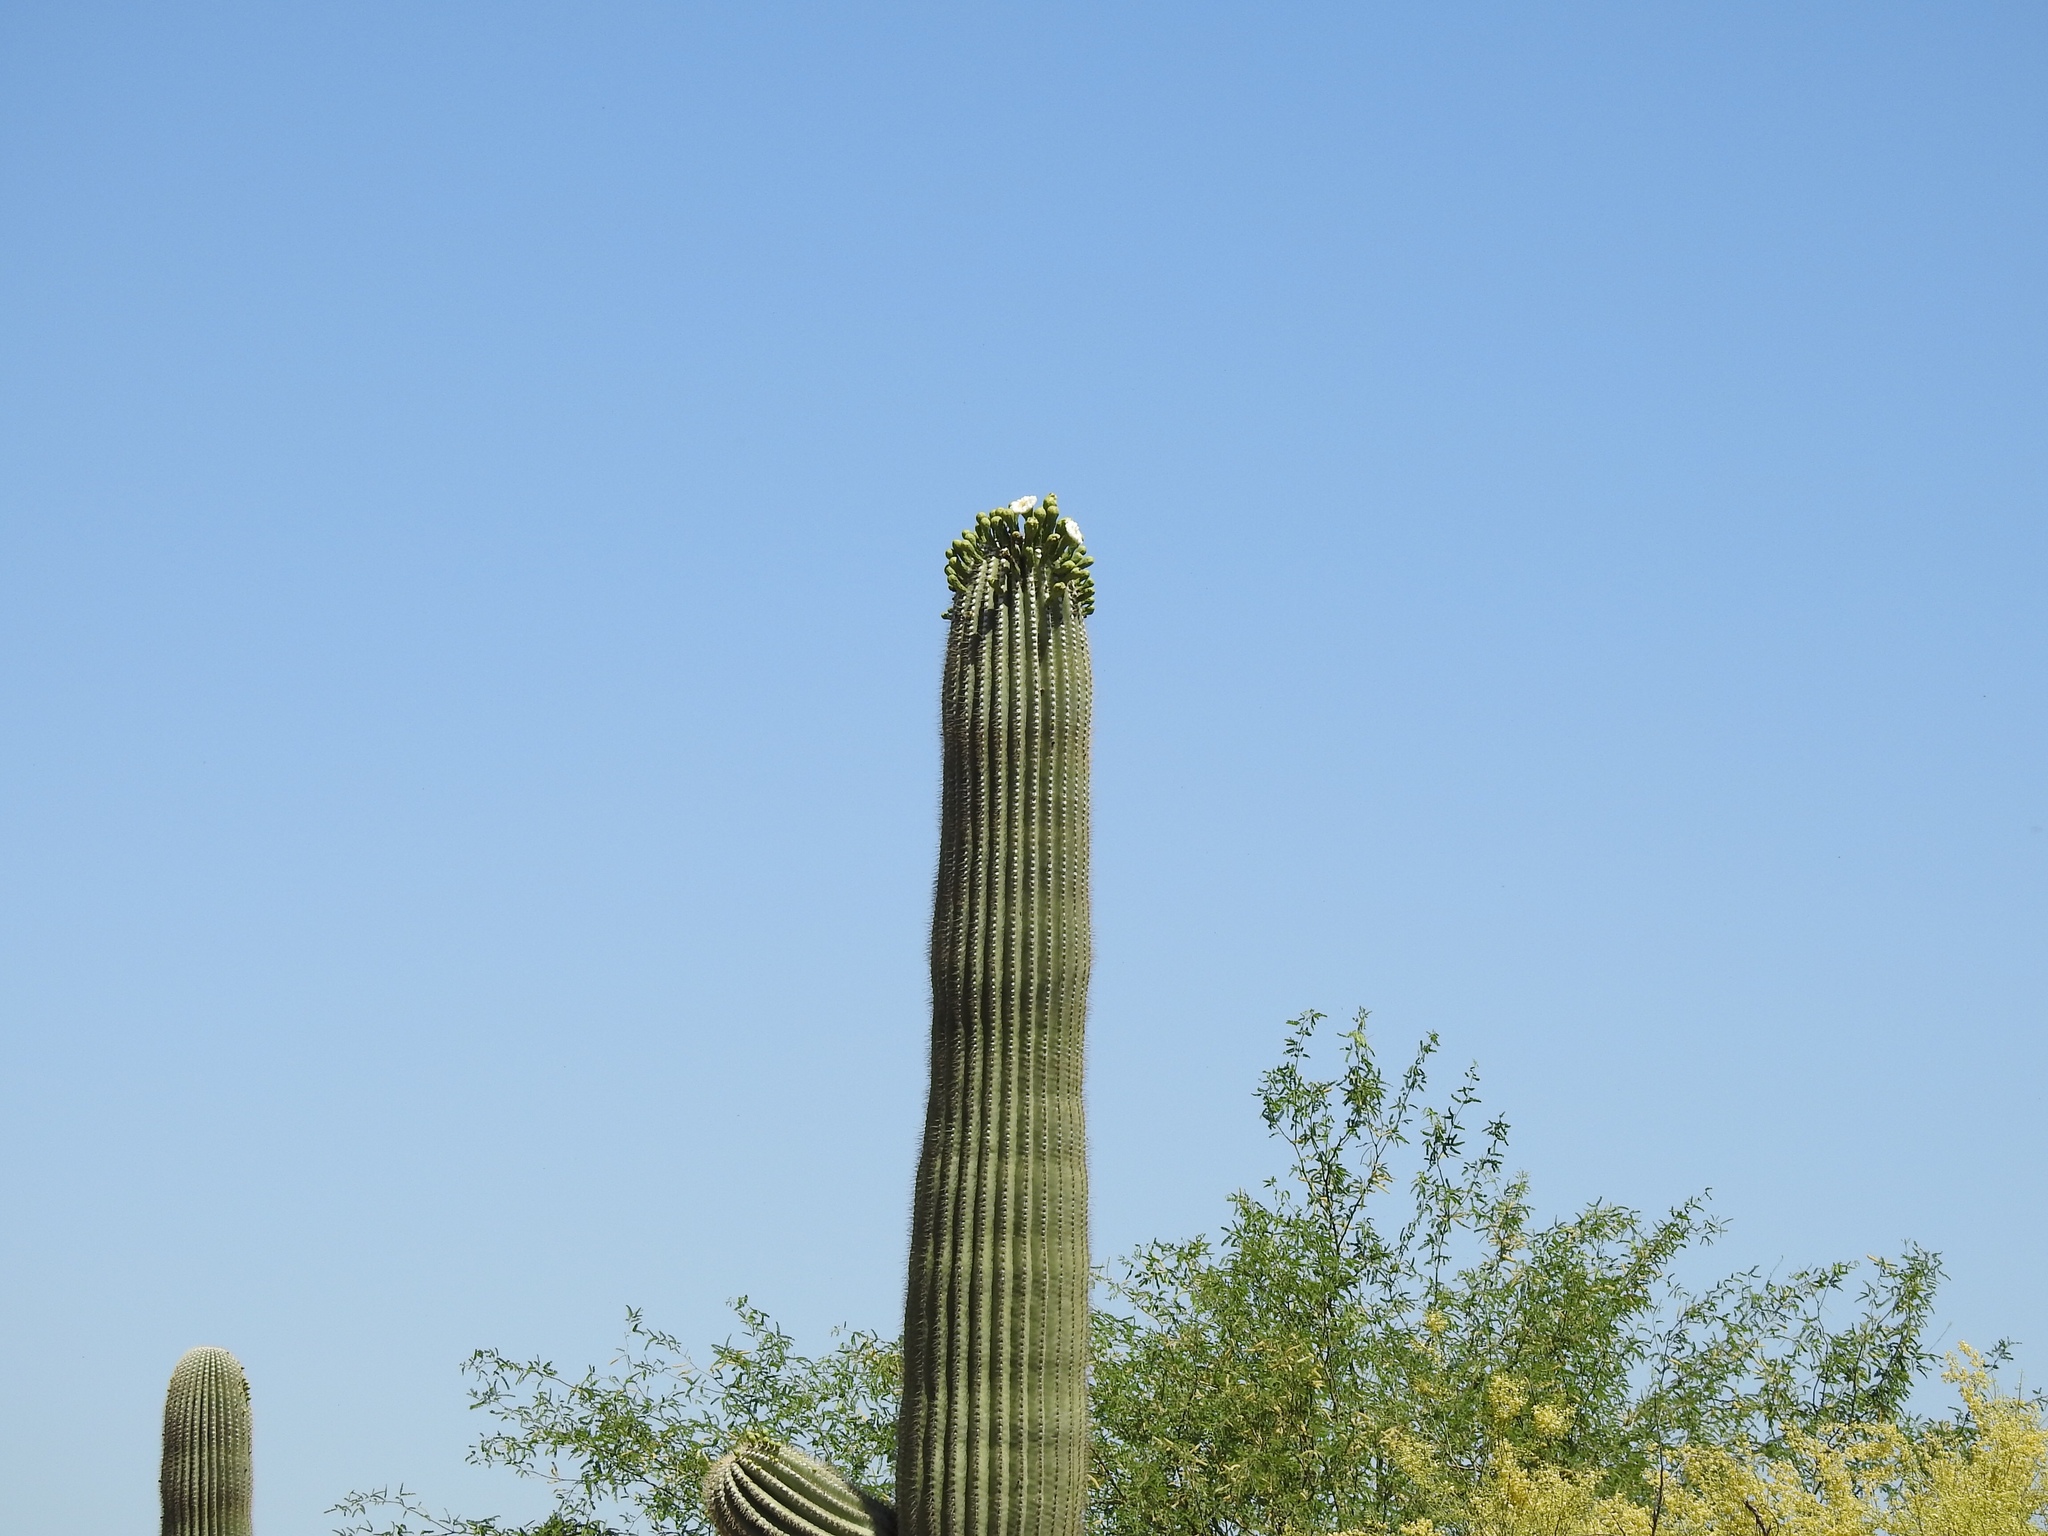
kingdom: Plantae
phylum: Tracheophyta
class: Magnoliopsida
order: Caryophyllales
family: Cactaceae
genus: Carnegiea
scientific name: Carnegiea gigantea
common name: Saguaro
